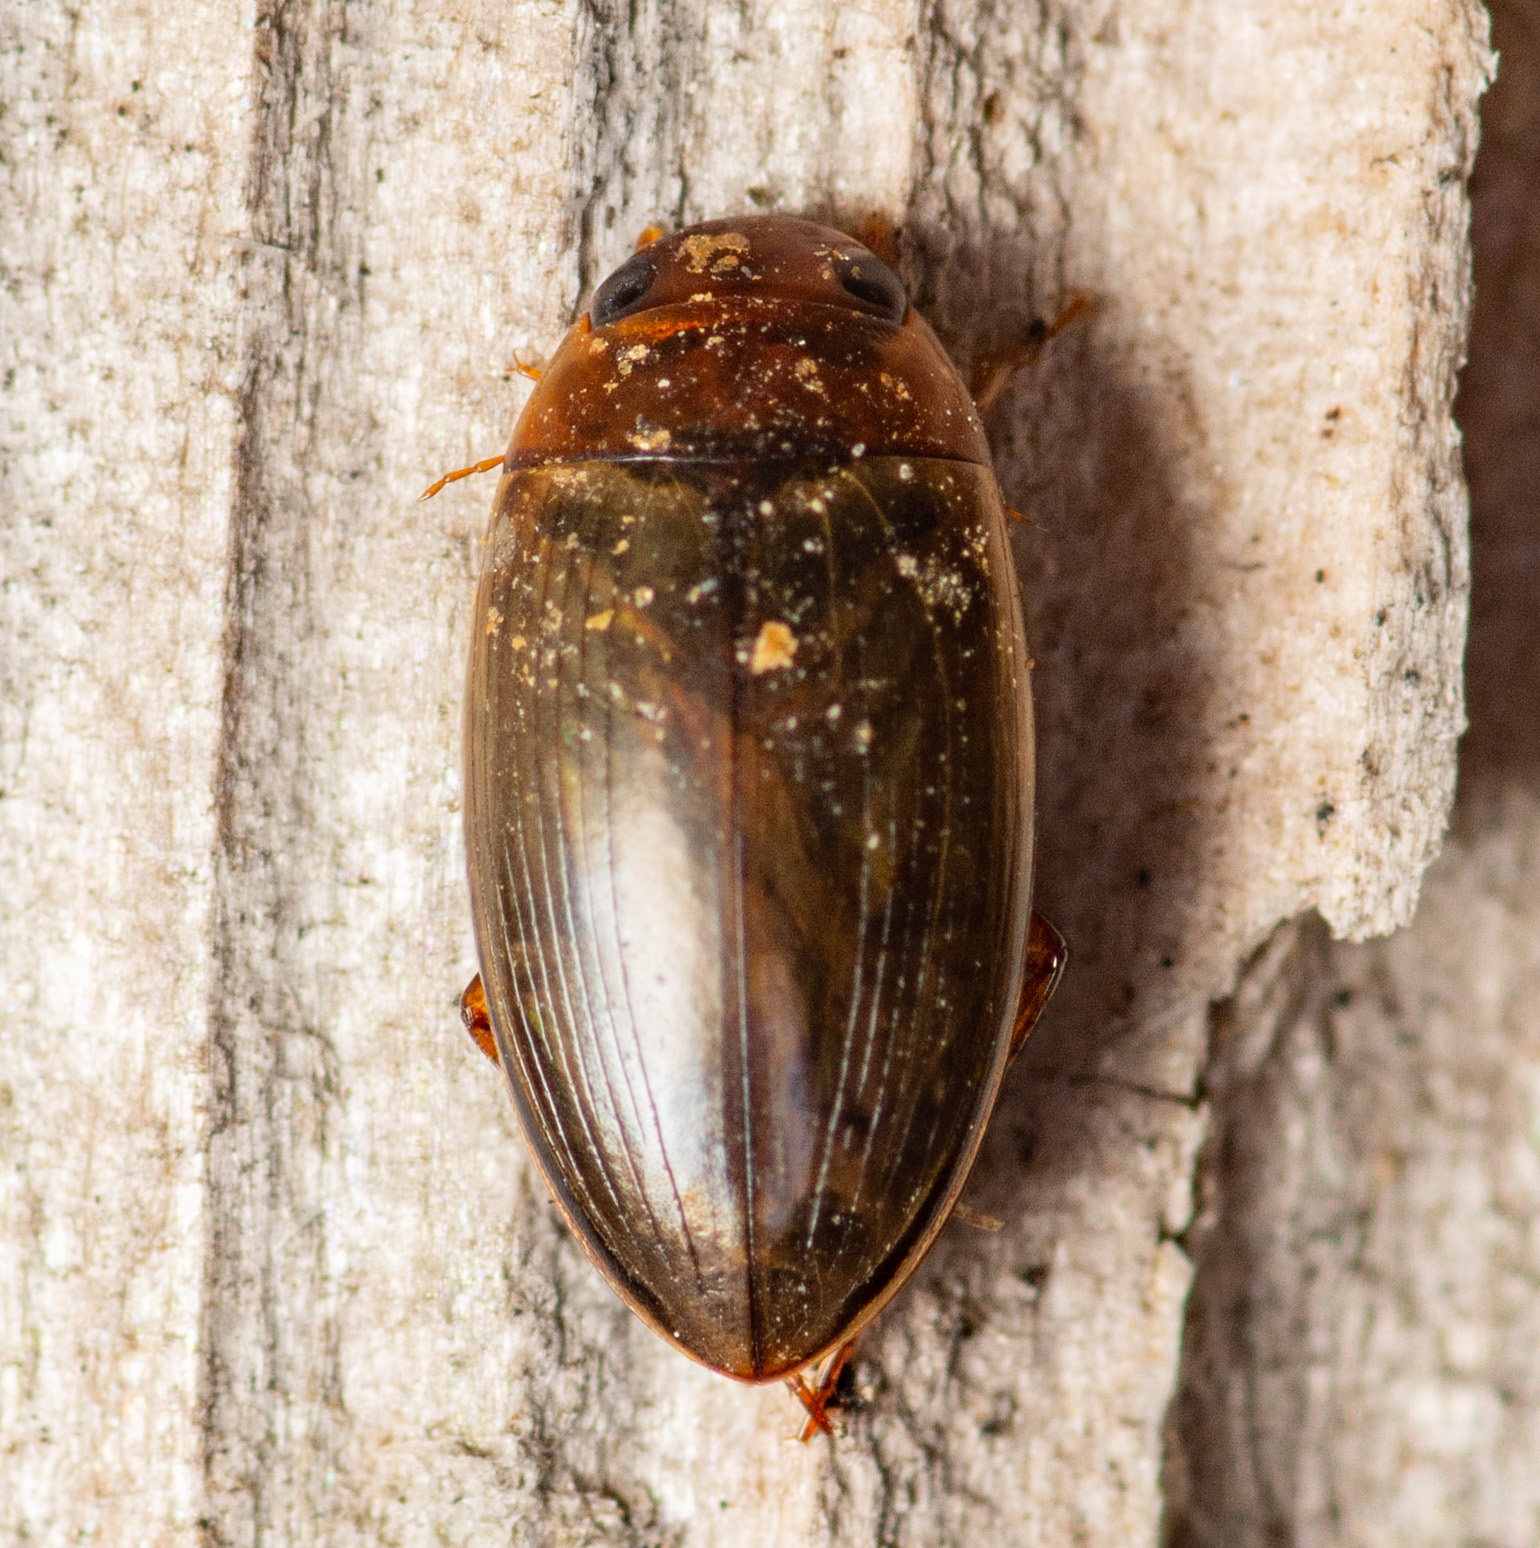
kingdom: Animalia
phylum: Arthropoda
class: Insecta
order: Coleoptera
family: Dytiscidae
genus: Copelatus
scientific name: Copelatus chevrolati
